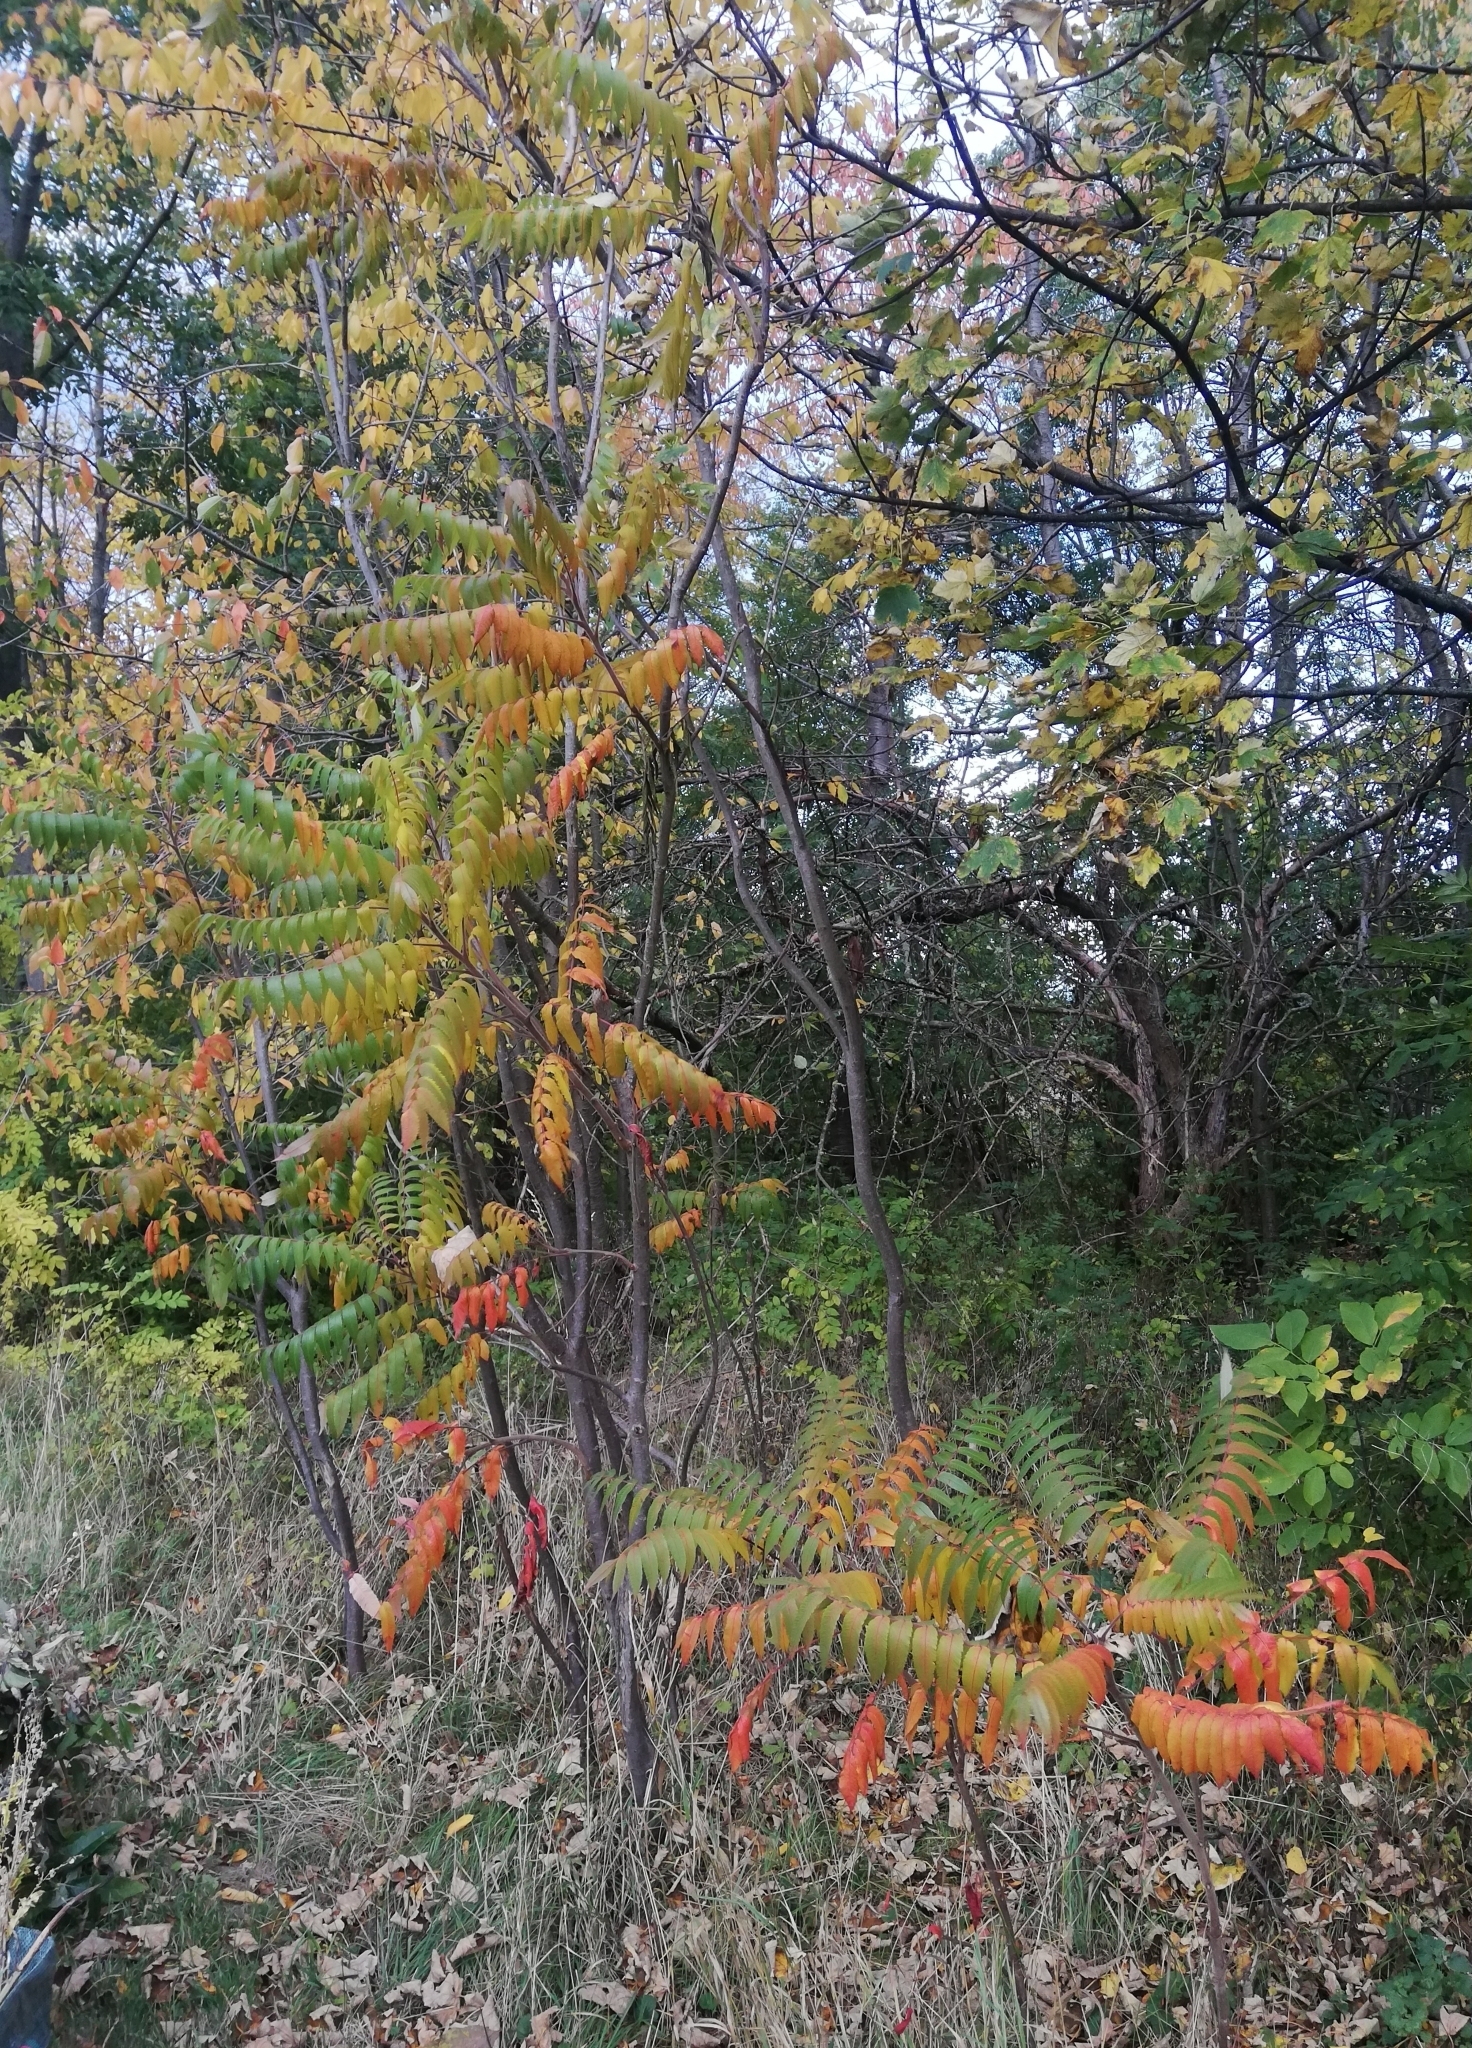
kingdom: Plantae
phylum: Tracheophyta
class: Magnoliopsida
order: Sapindales
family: Anacardiaceae
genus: Rhus
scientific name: Rhus typhina
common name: Staghorn sumac
